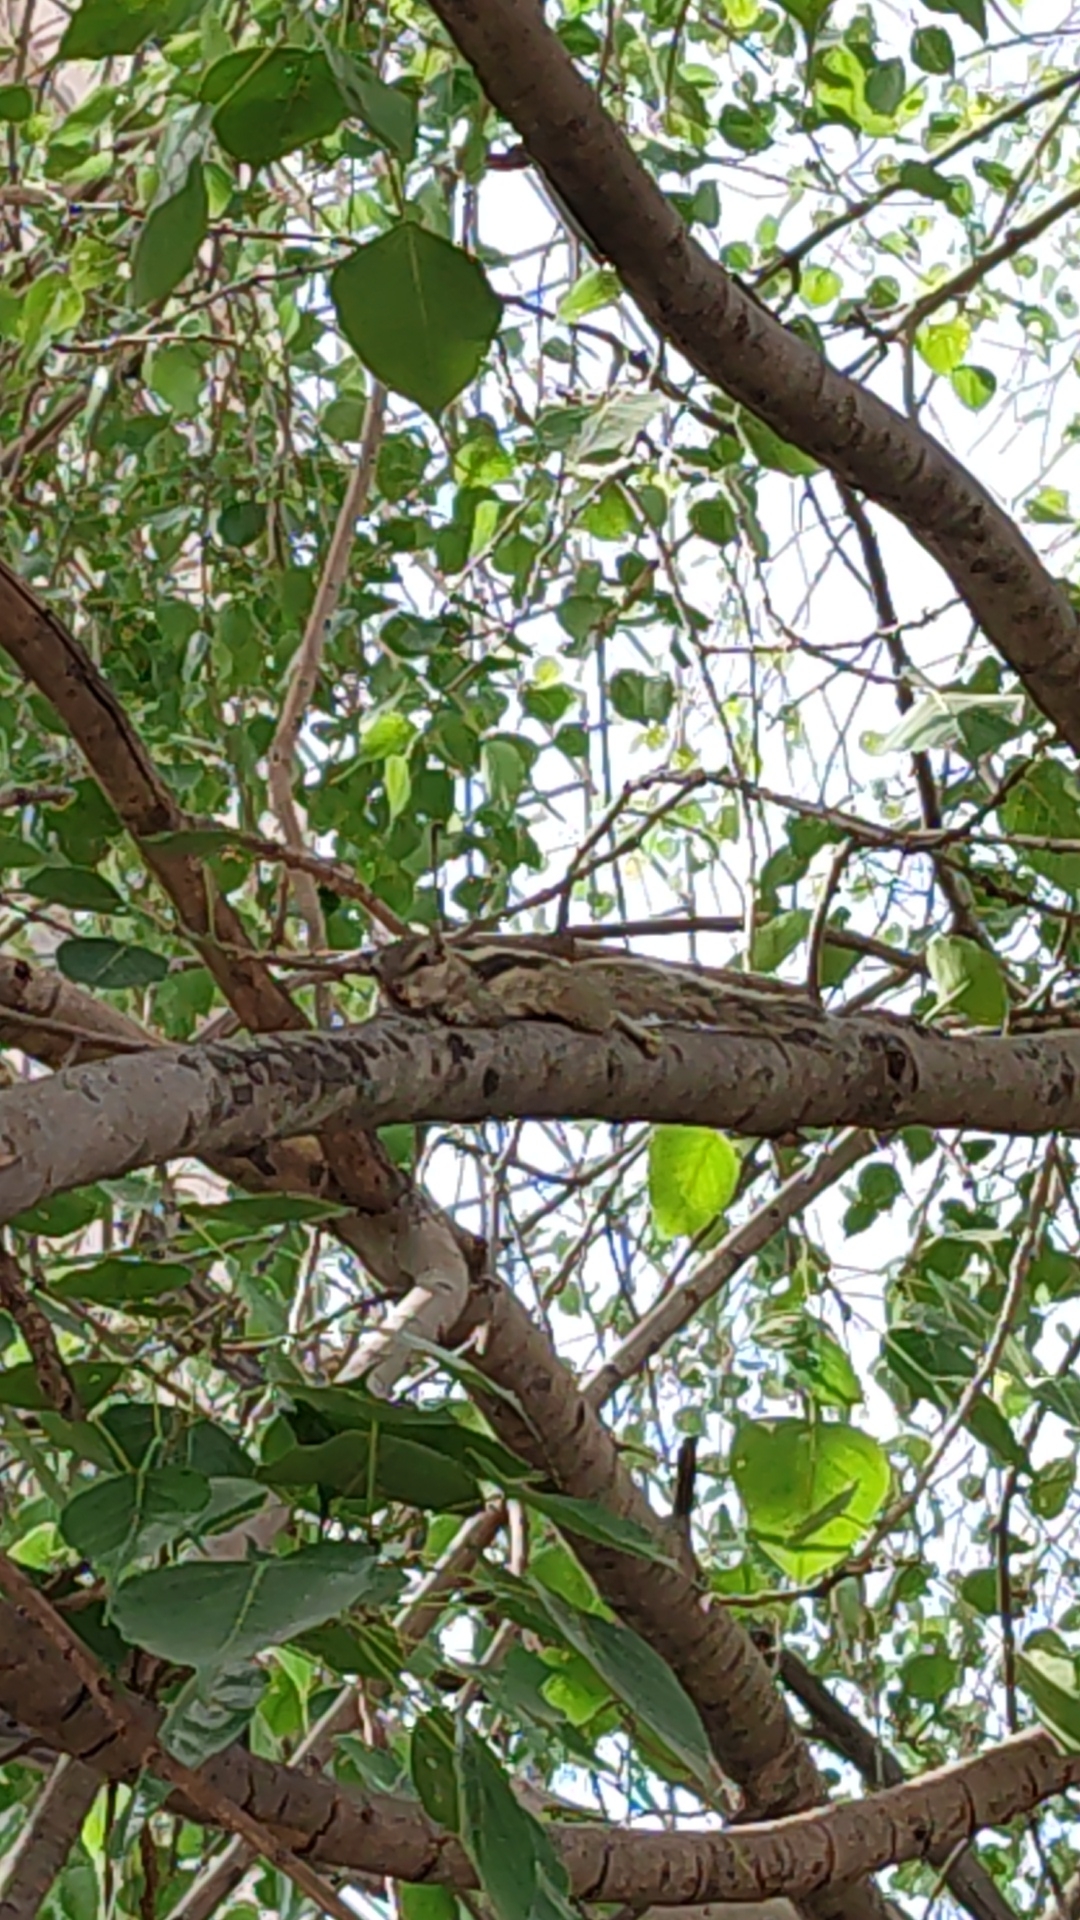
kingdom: Animalia
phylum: Chordata
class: Mammalia
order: Rodentia
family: Sciuridae
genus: Funambulus
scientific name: Funambulus pennantii
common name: Northern palm squirrel
